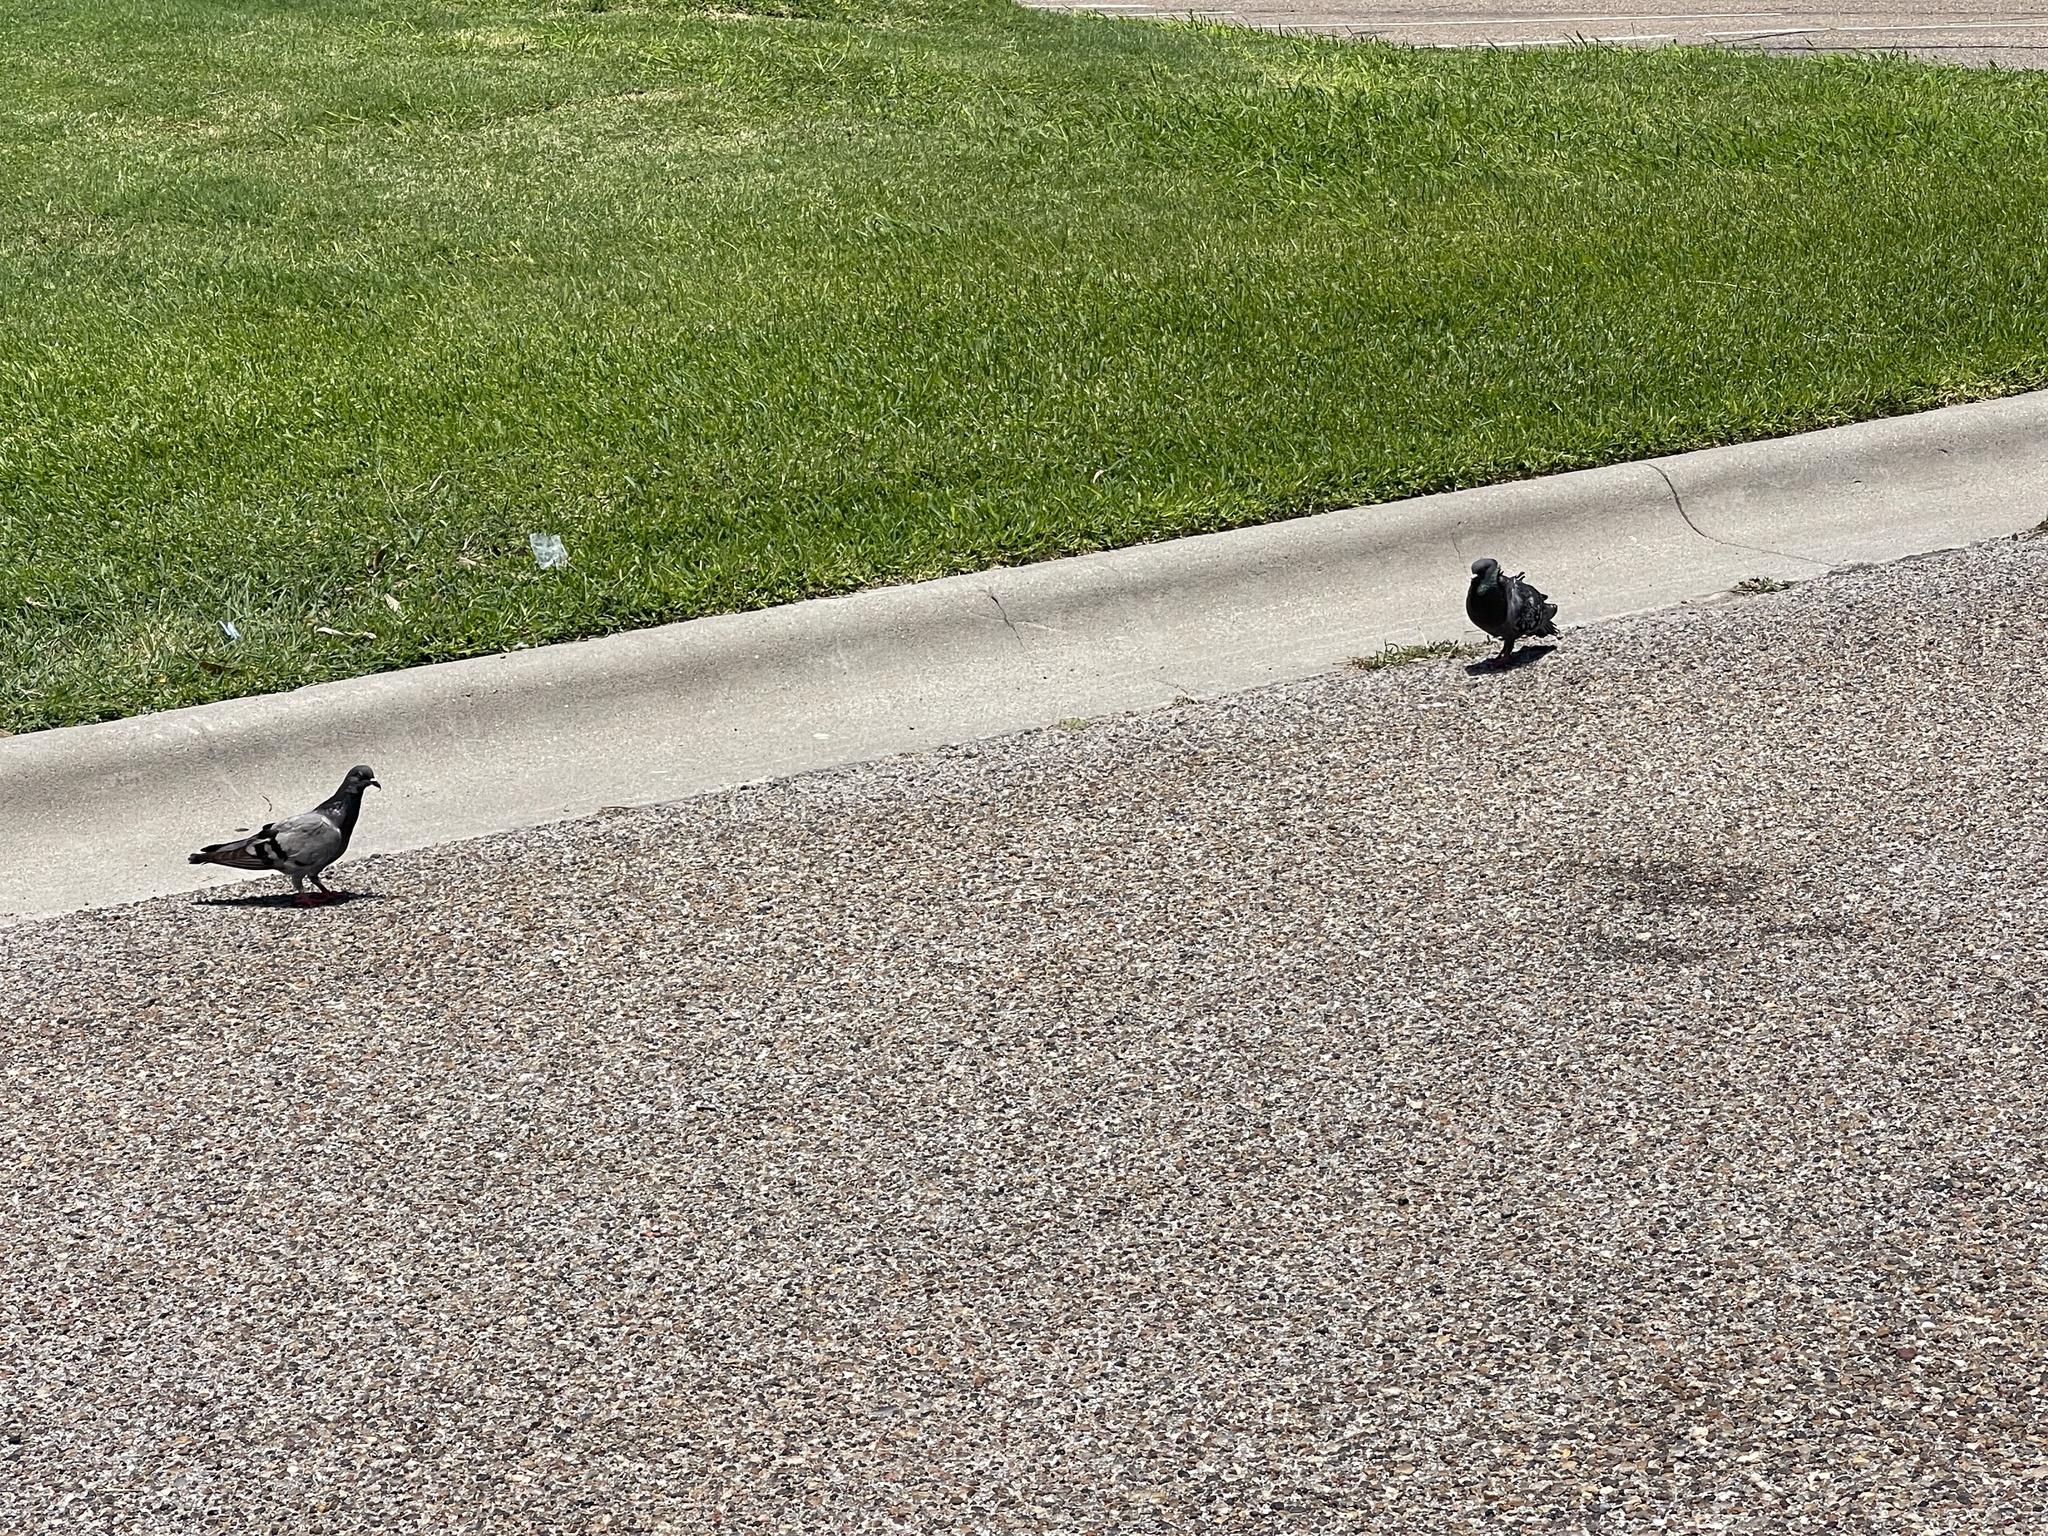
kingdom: Animalia
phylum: Chordata
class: Aves
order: Columbiformes
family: Columbidae
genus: Columba
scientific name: Columba livia
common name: Rock pigeon
